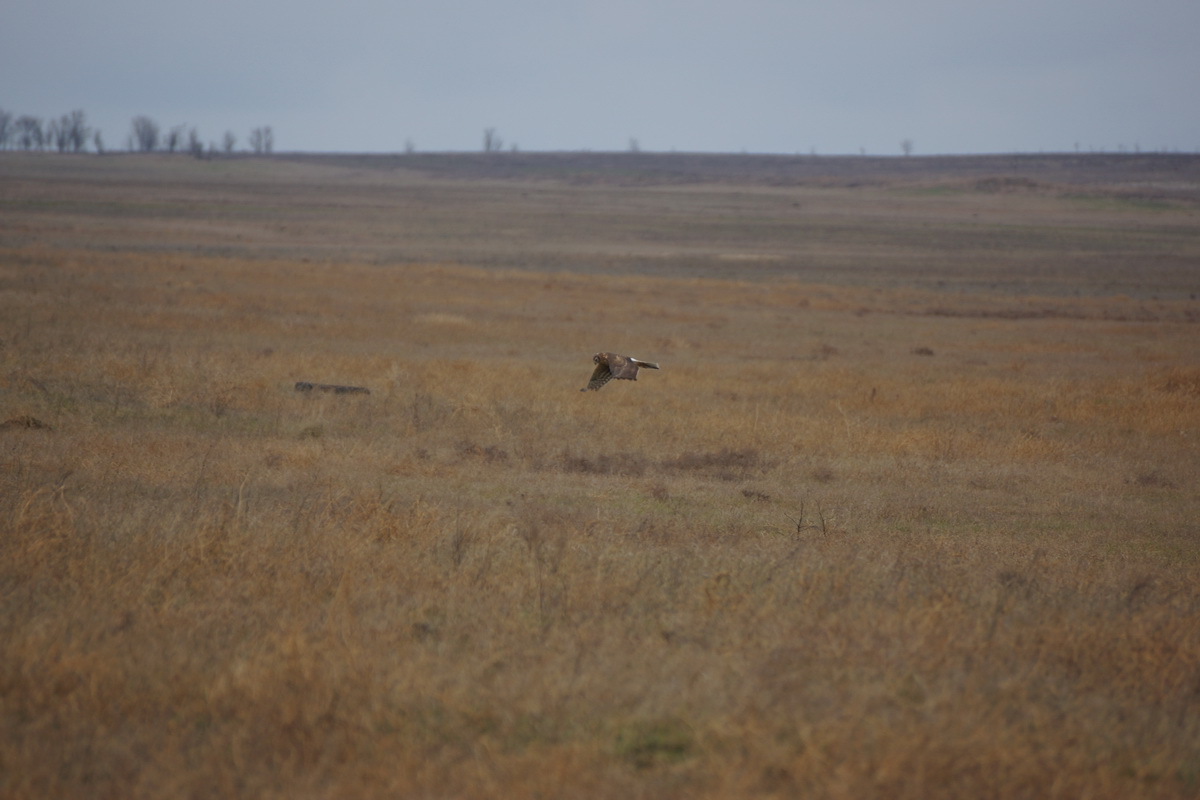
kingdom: Animalia
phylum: Chordata
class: Aves
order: Accipitriformes
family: Accipitridae
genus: Circus
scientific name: Circus cyaneus
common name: Hen harrier
